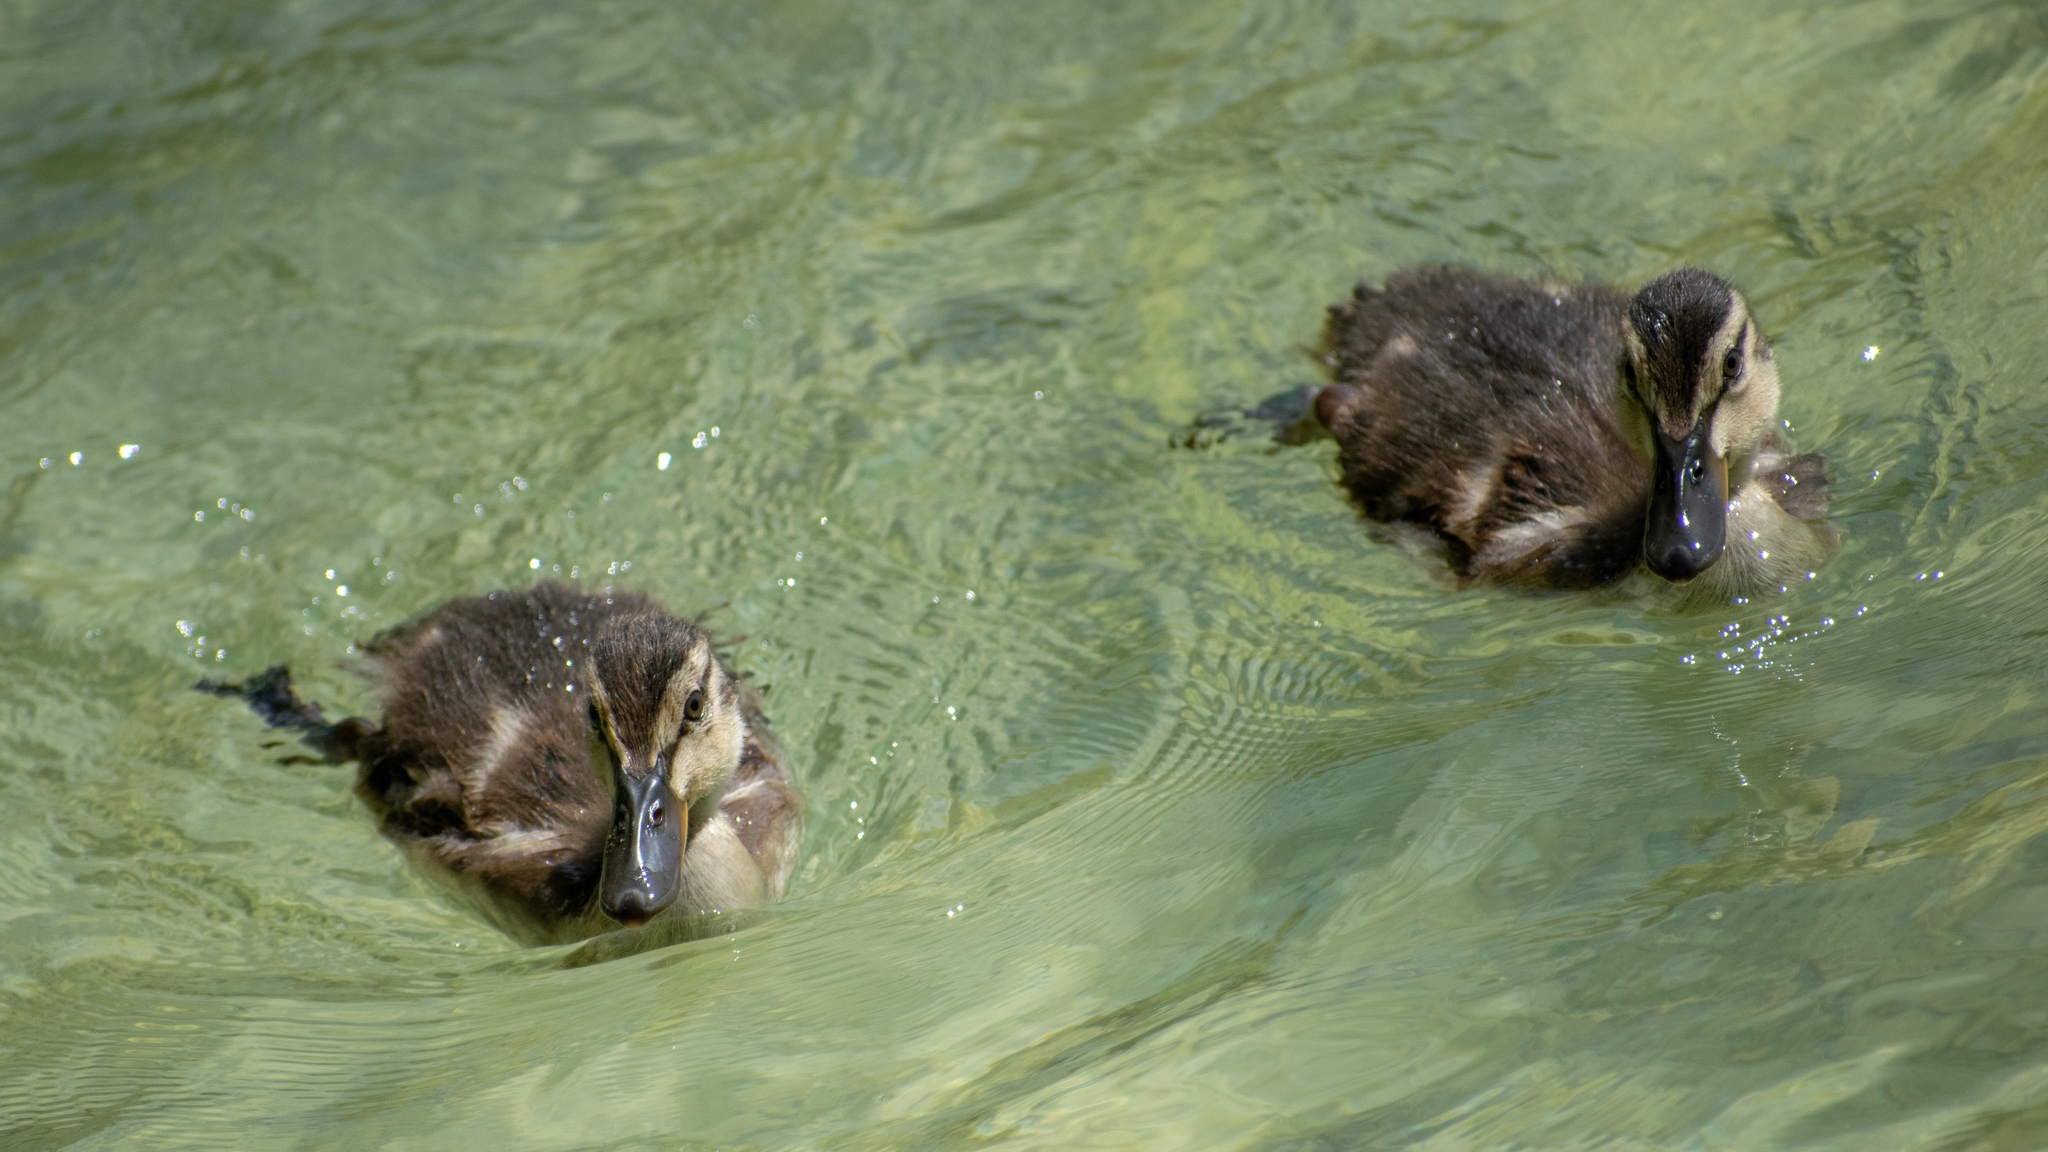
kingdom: Animalia
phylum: Chordata
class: Aves
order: Anseriformes
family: Anatidae
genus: Anas
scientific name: Anas platyrhynchos
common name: Mallard
